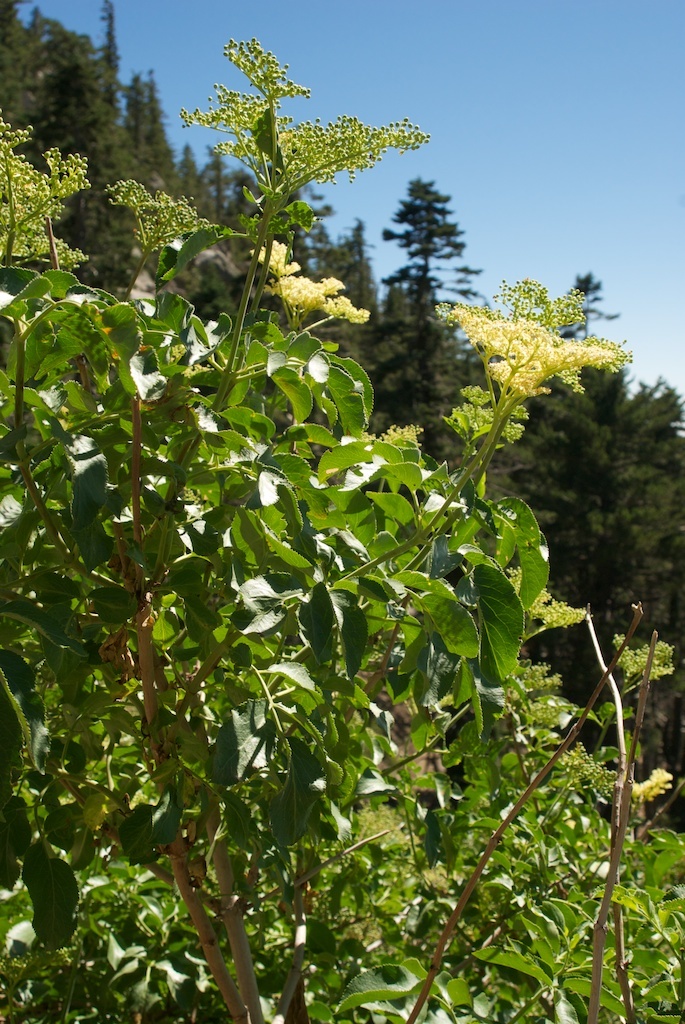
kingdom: Plantae
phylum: Tracheophyta
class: Magnoliopsida
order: Dipsacales
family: Viburnaceae
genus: Sambucus
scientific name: Sambucus cerulea
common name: Blue elder
